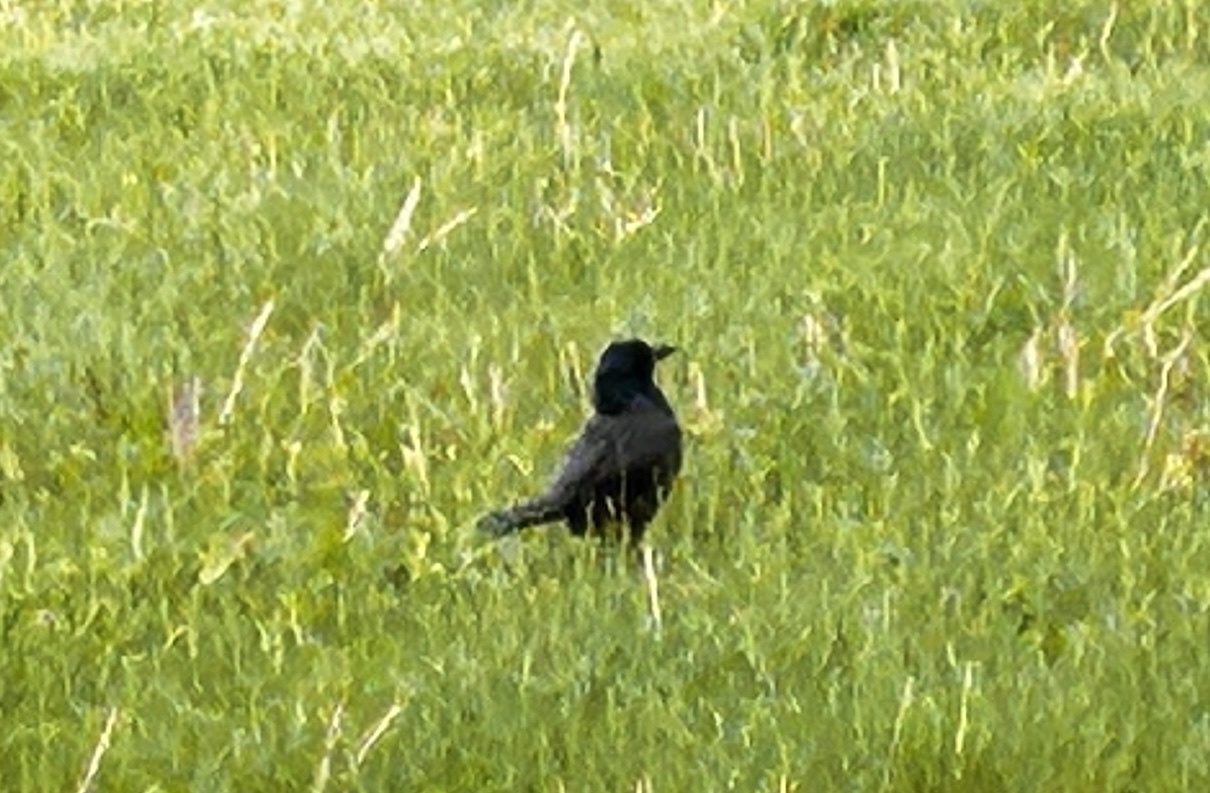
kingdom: Animalia
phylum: Chordata
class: Aves
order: Passeriformes
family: Icteridae
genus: Quiscalus
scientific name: Quiscalus quiscula
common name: Common grackle
